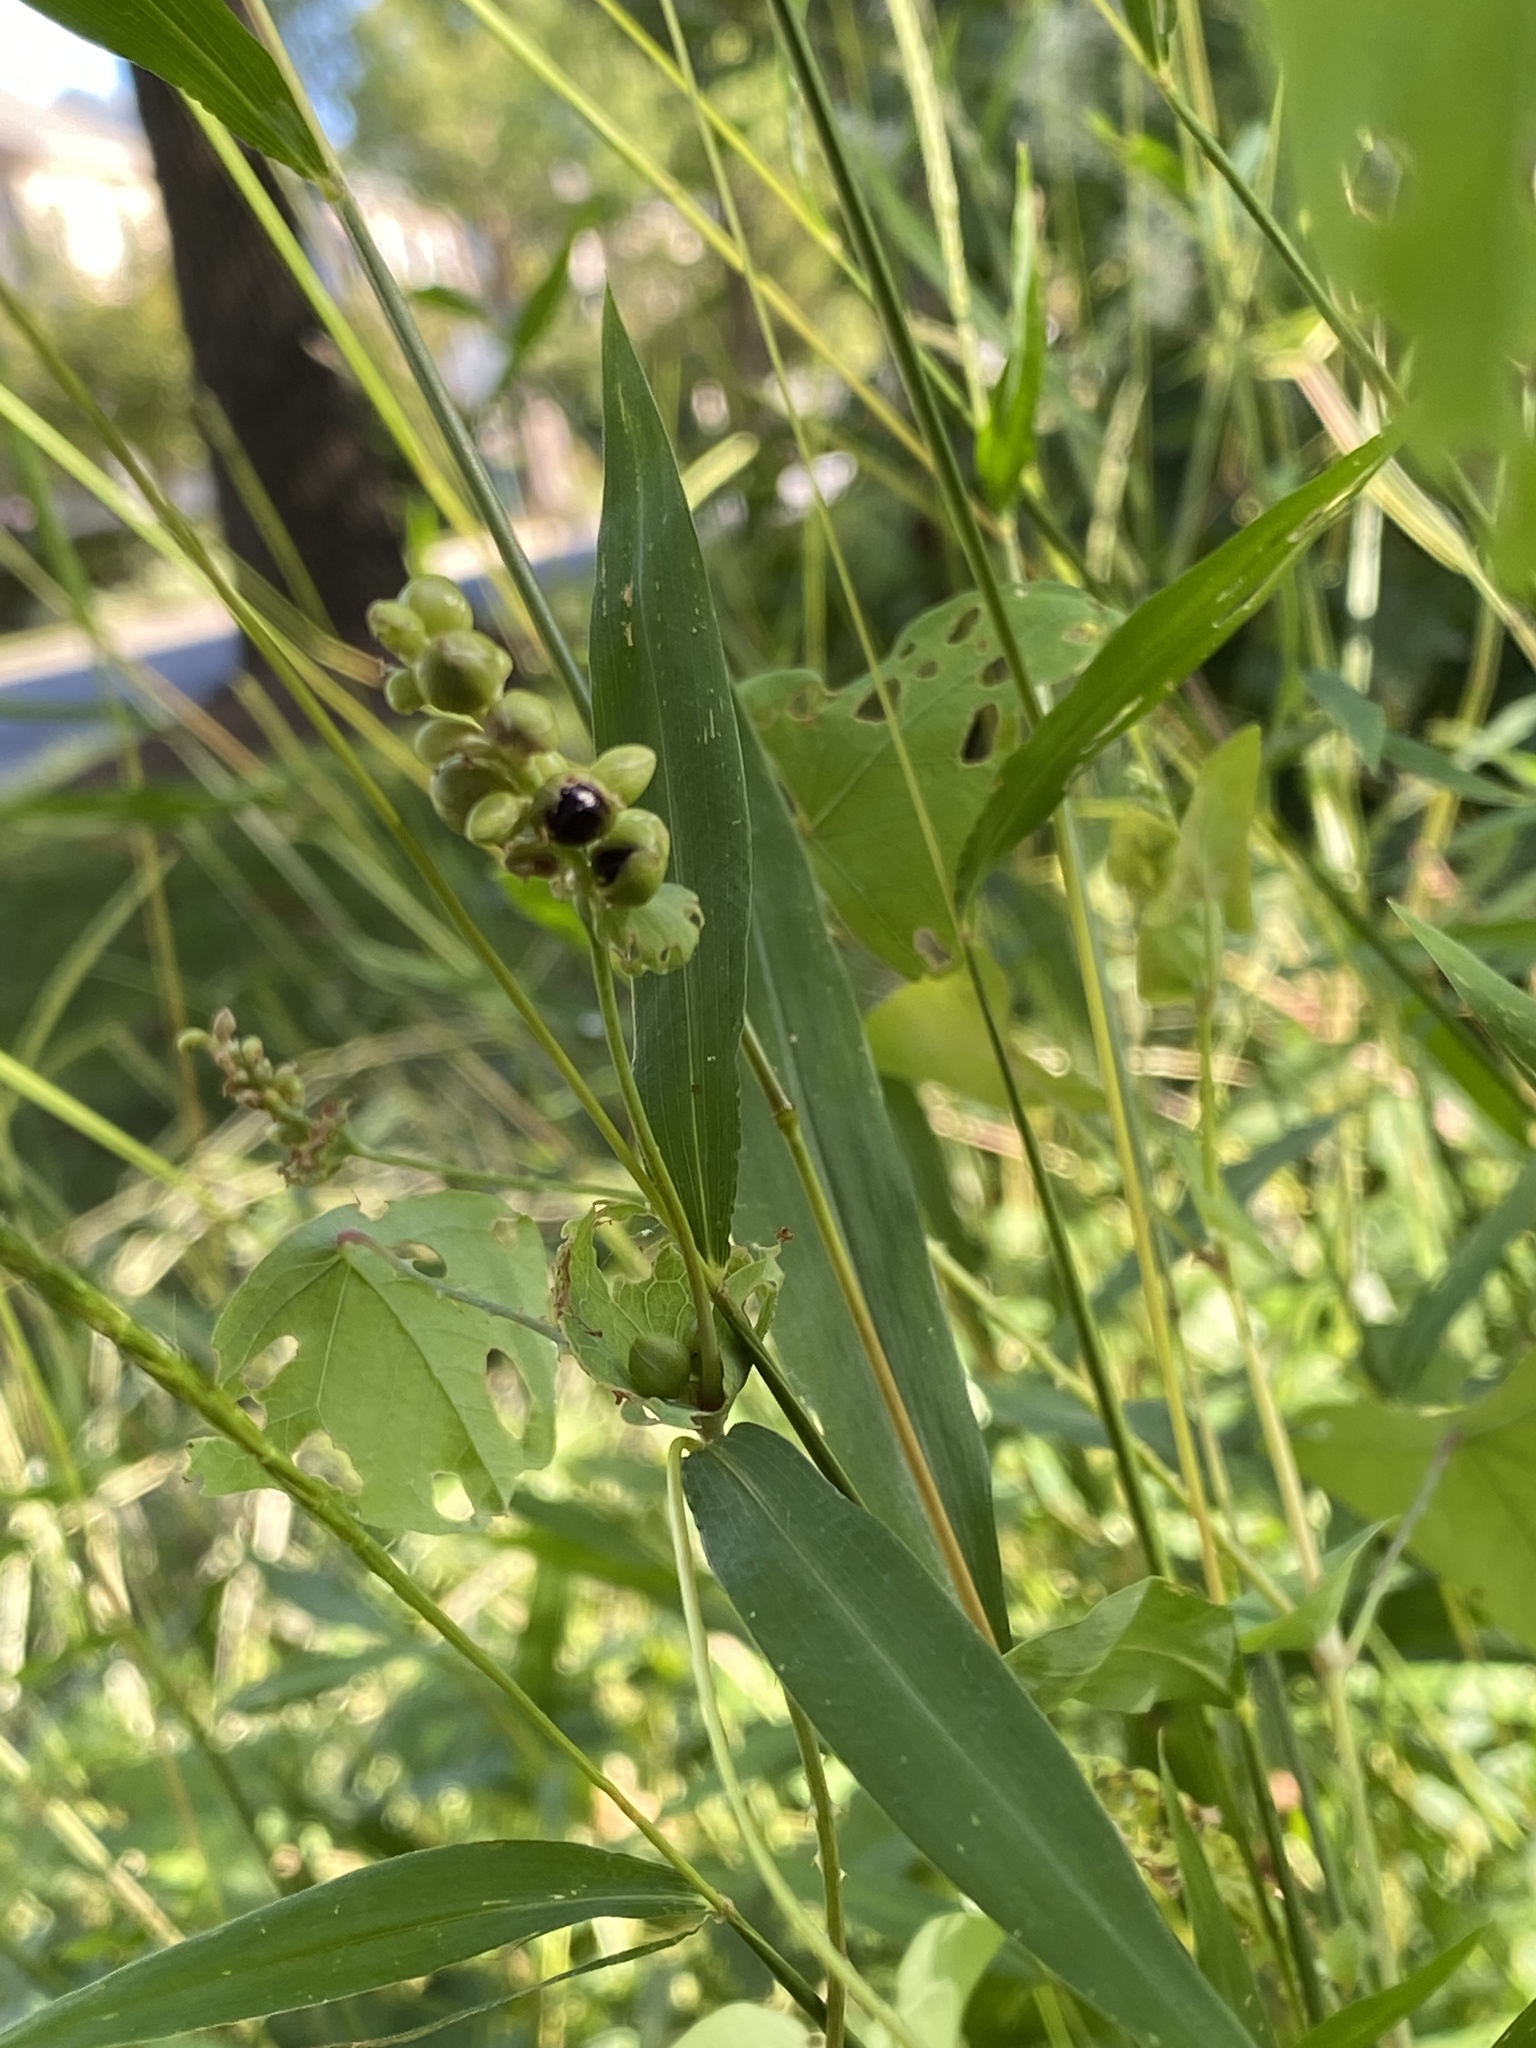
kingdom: Plantae
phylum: Tracheophyta
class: Magnoliopsida
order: Caryophyllales
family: Polygonaceae
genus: Persicaria
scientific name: Persicaria perfoliata
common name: Asiatic tearthumb
